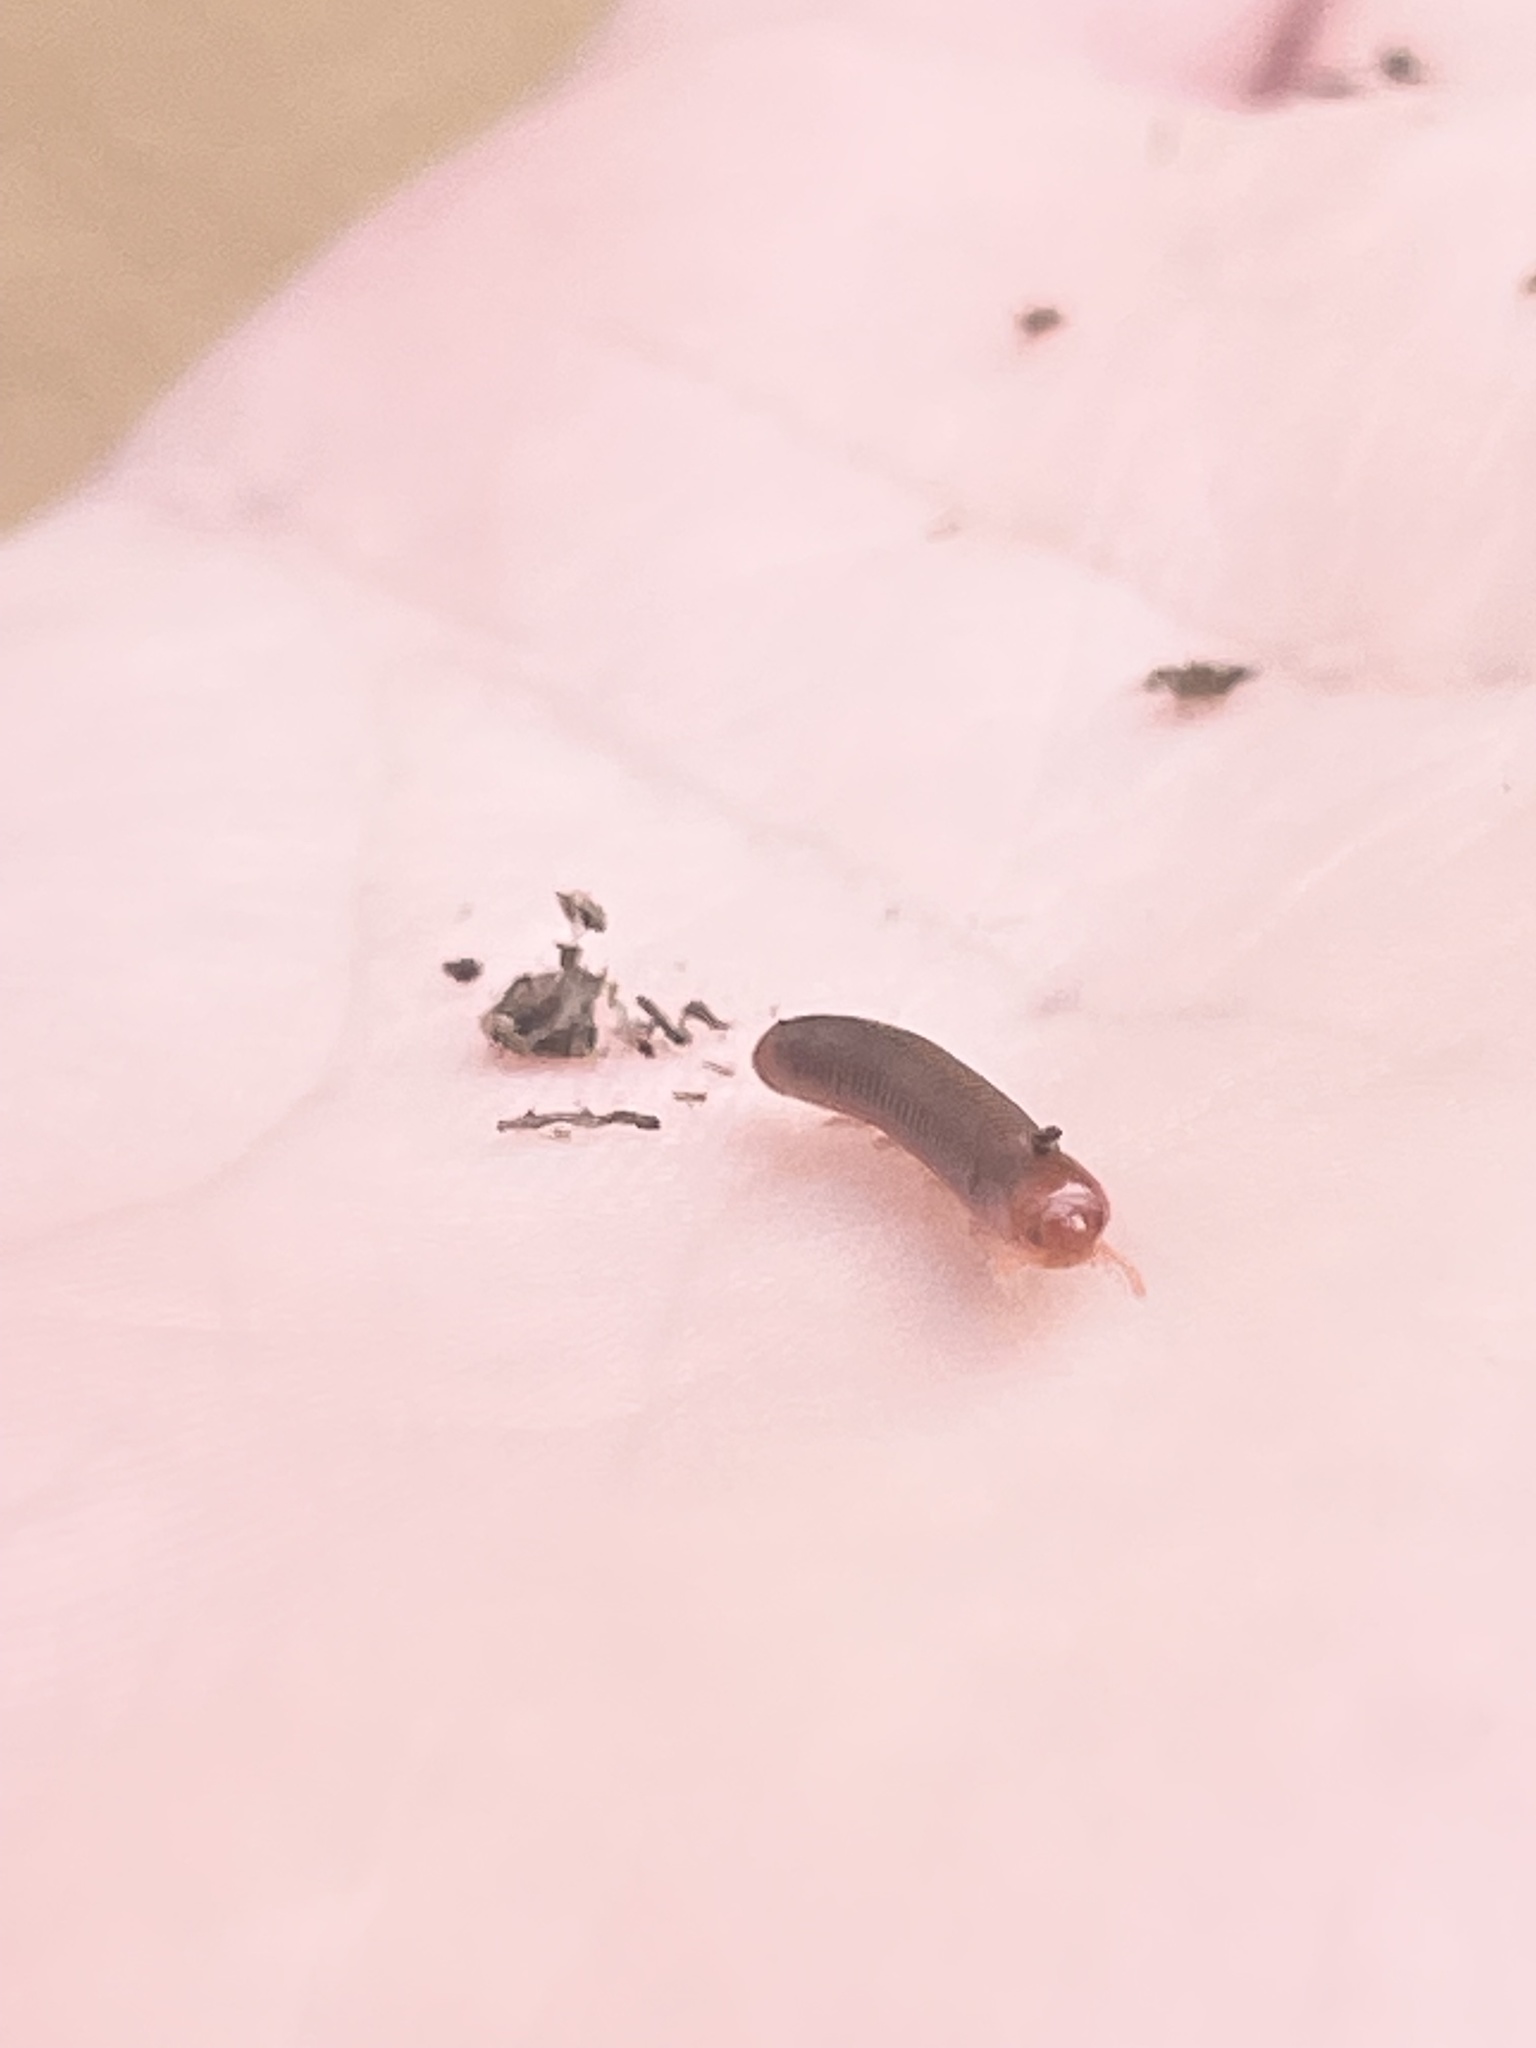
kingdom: Animalia
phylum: Arthropoda
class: Diplopoda
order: Spirobolida
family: Pachybolidae
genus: Trigoniulus
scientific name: Trigoniulus corallinus
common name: Millipede
